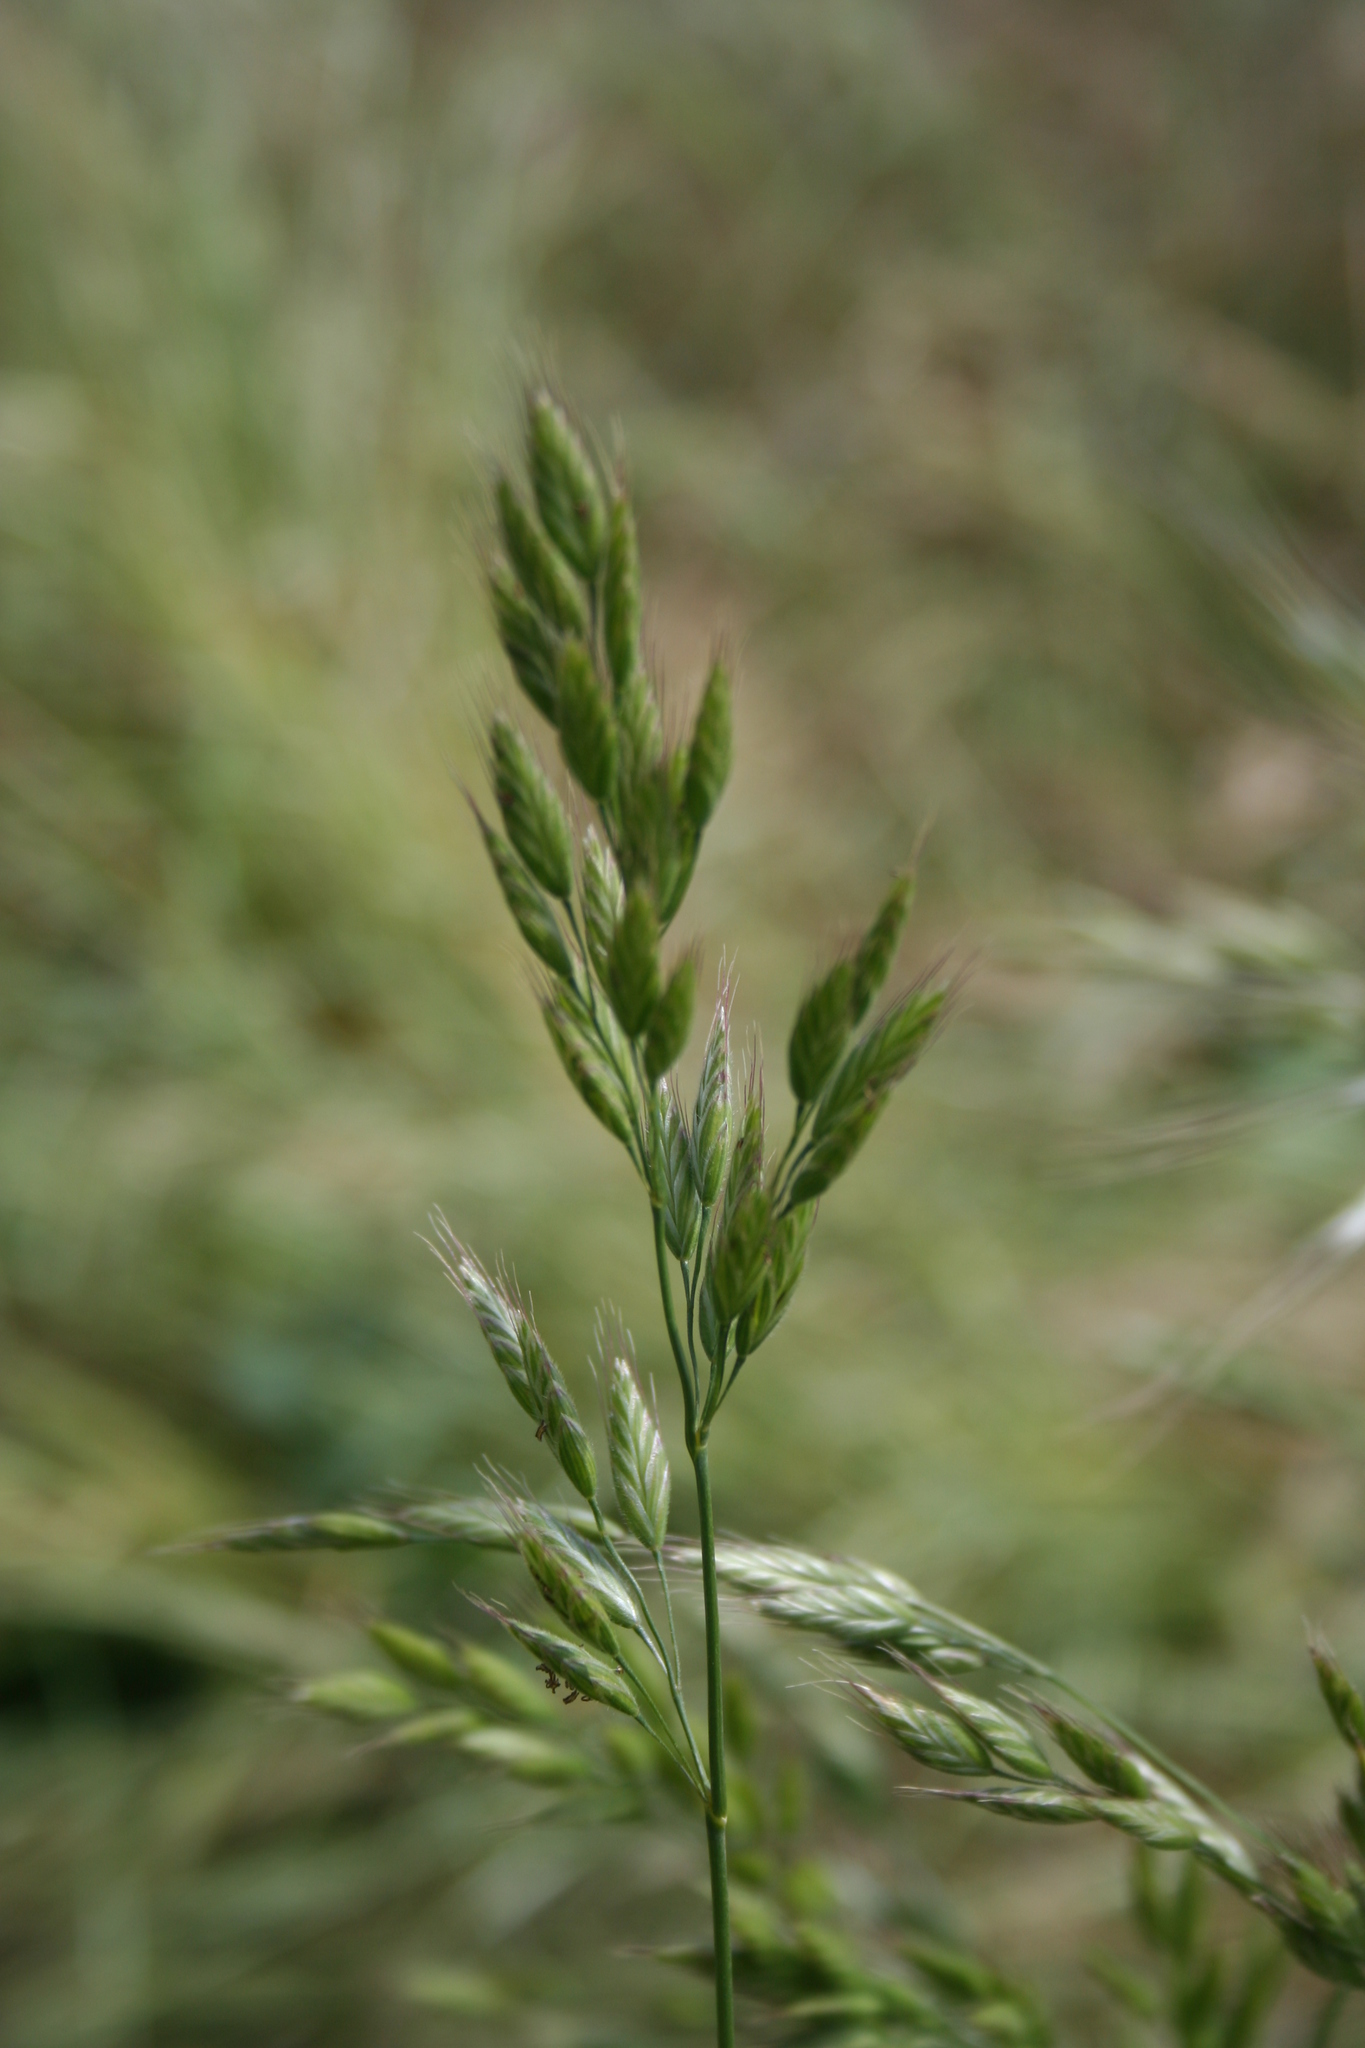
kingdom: Plantae
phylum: Tracheophyta
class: Liliopsida
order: Poales
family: Poaceae
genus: Bromus
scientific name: Bromus hordeaceus
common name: Soft brome
